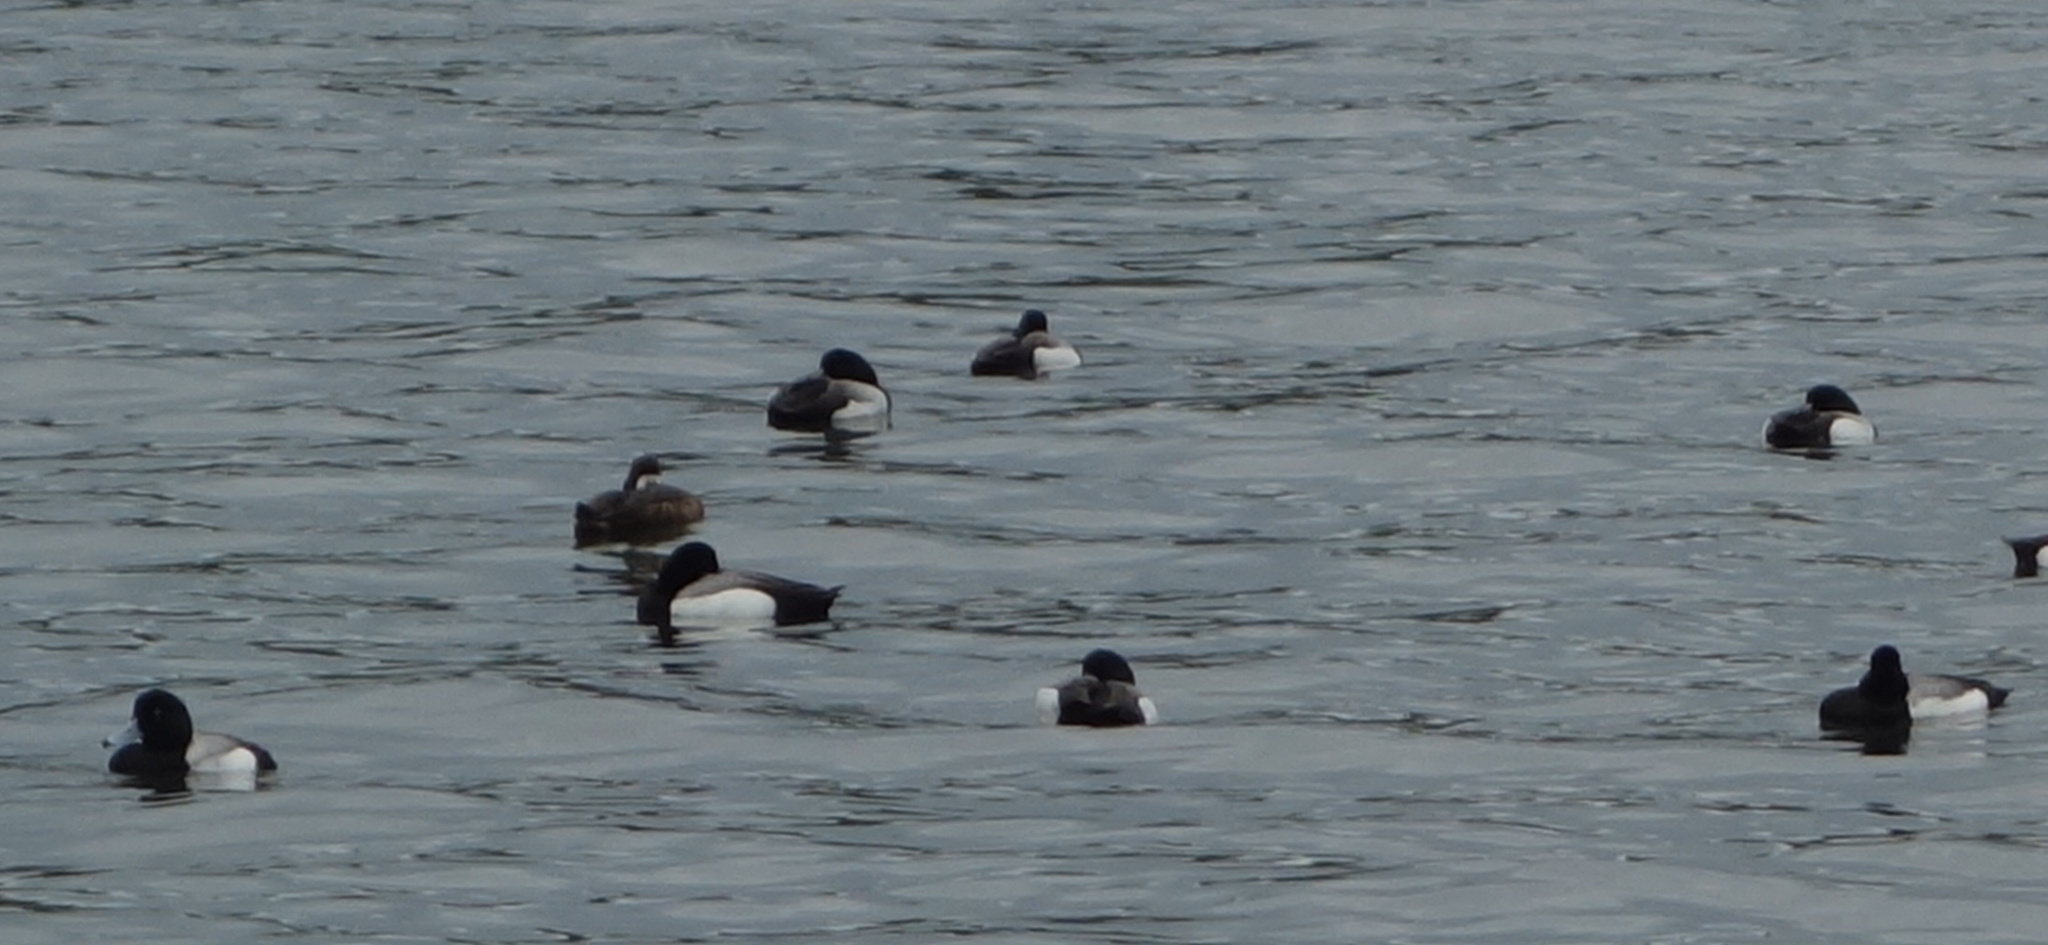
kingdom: Animalia
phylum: Chordata
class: Aves
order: Anseriformes
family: Anatidae
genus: Aythya
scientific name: Aythya affinis
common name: Lesser scaup
